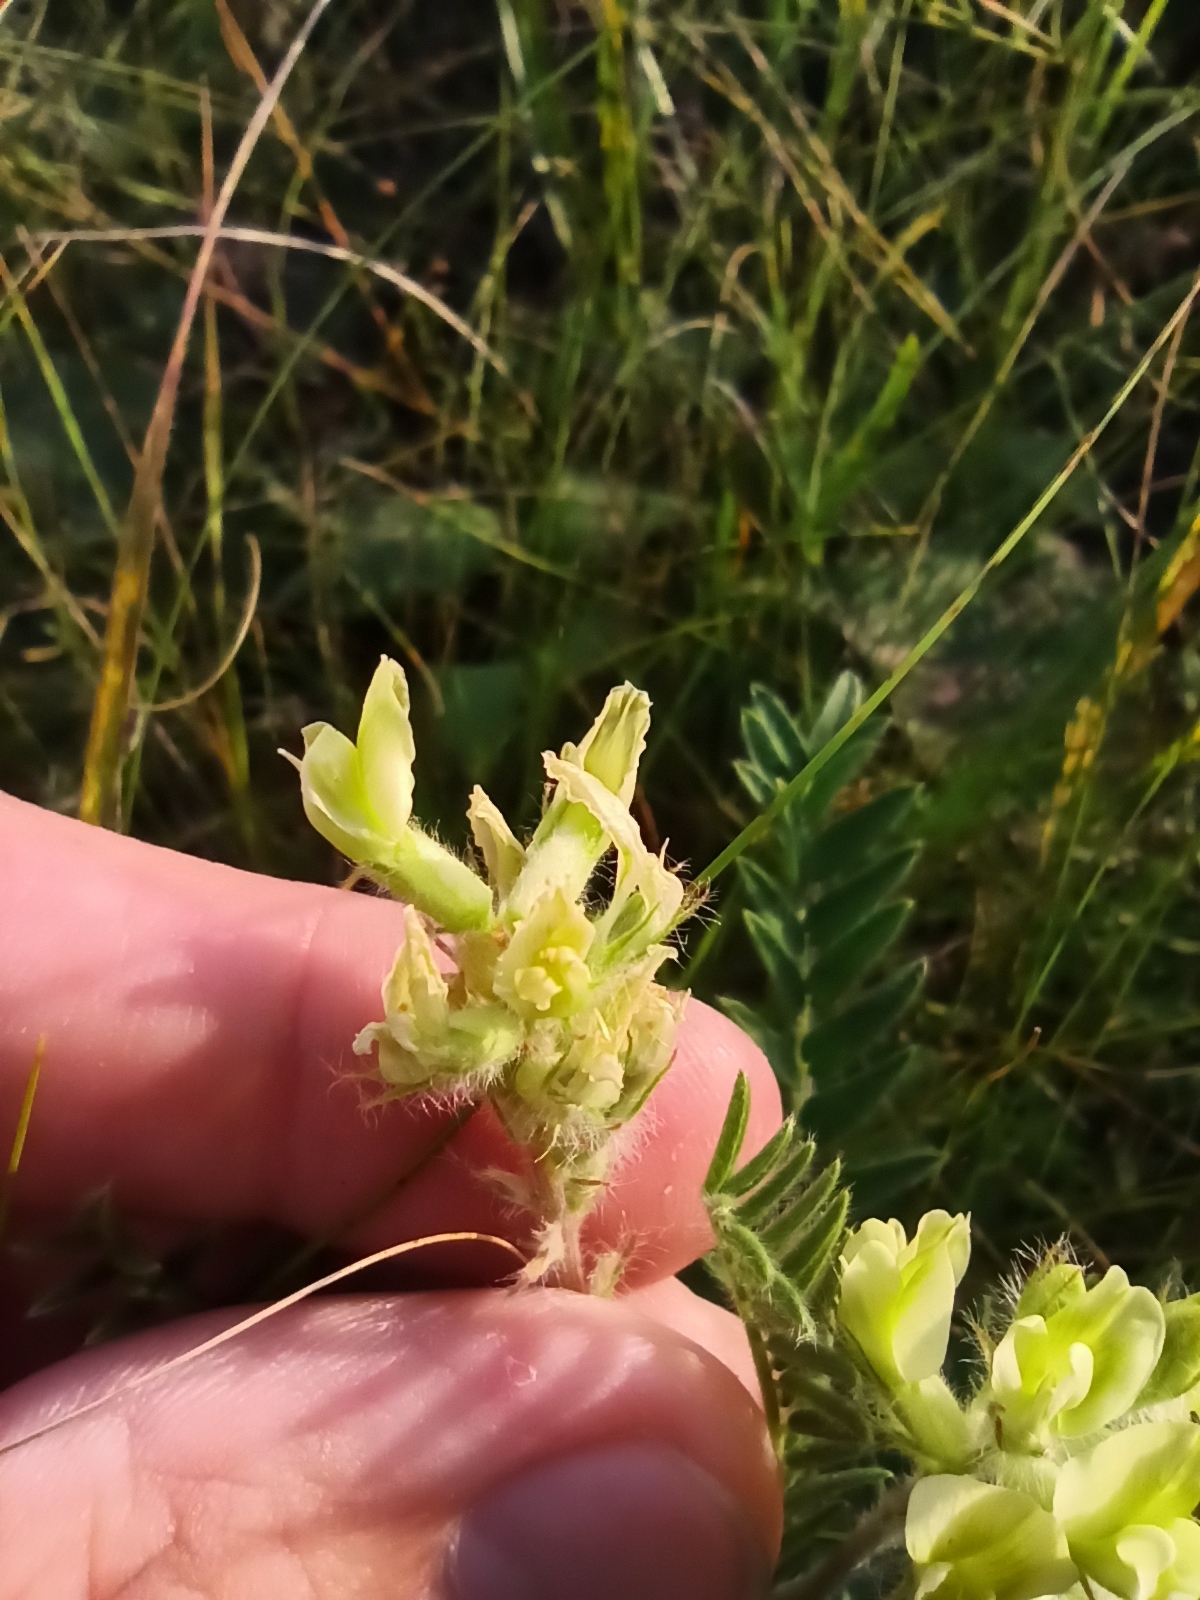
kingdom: Plantae
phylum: Tracheophyta
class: Magnoliopsida
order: Fabales
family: Fabaceae
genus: Oxytropis
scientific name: Oxytropis pilosa
